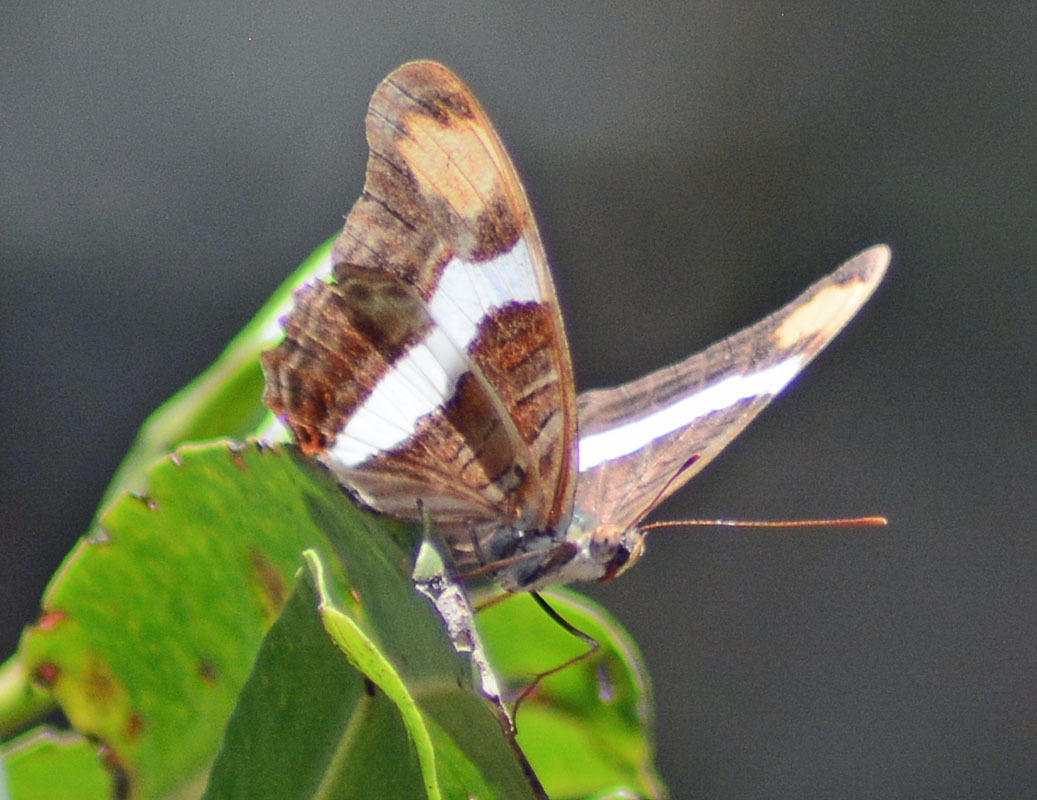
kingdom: Animalia
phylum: Arthropoda
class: Insecta
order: Lepidoptera
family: Nymphalidae
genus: Limenitis
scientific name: Limenitis fessonia
